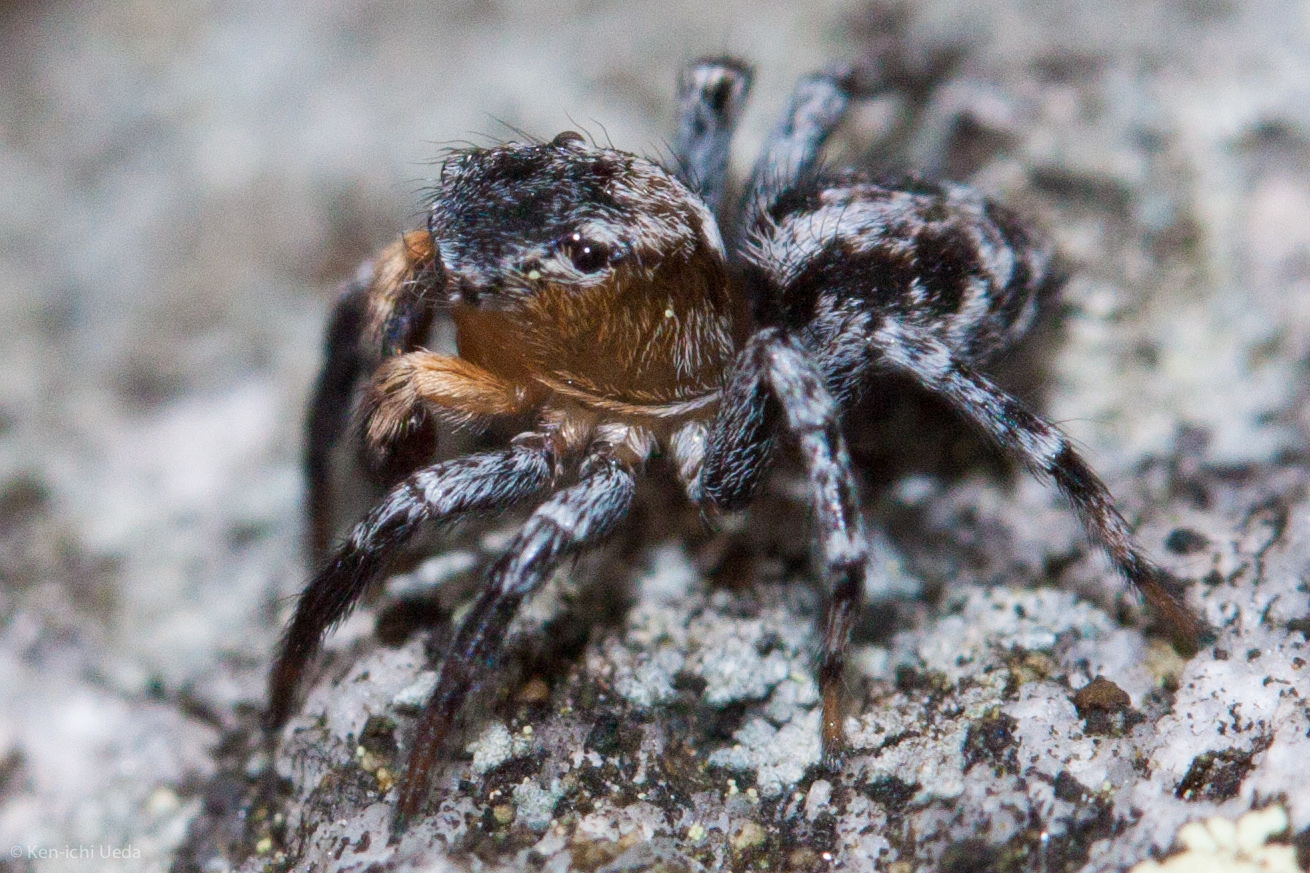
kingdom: Animalia
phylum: Arthropoda
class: Arachnida
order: Araneae
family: Salticidae
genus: Naphrys
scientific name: Naphrys pulex
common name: Flea jumping spider
